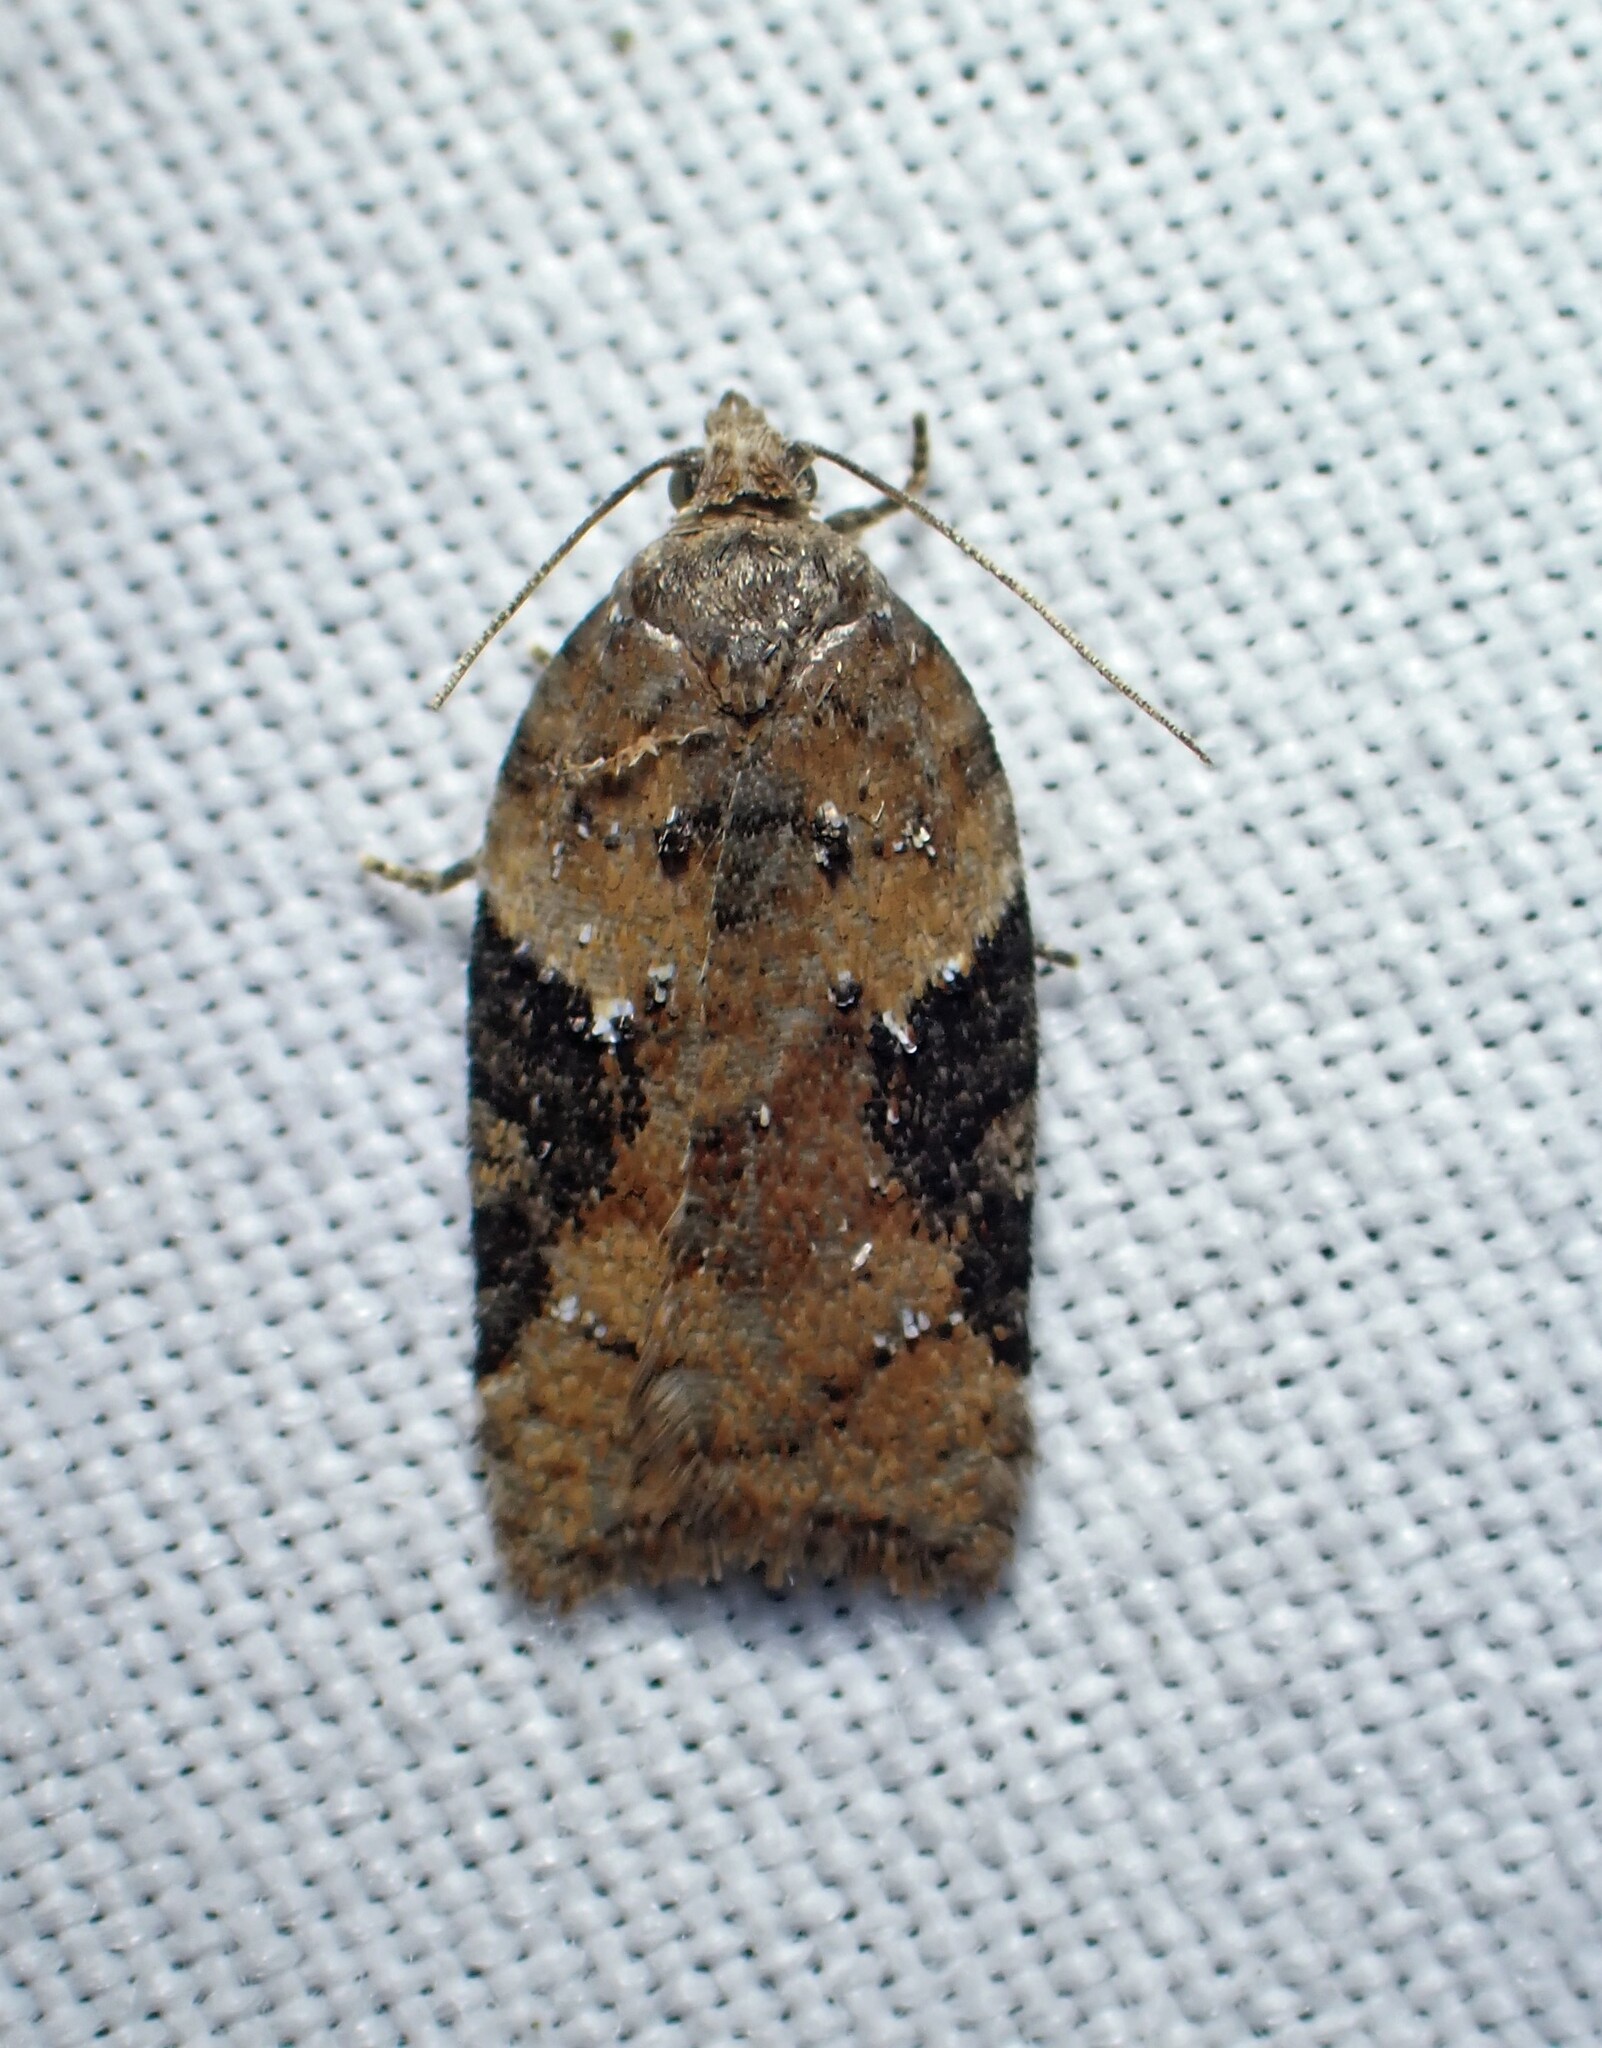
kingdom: Animalia
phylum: Arthropoda
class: Insecta
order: Lepidoptera
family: Tortricidae
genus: Acleris
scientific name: Acleris braunana
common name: Alder leafroller
